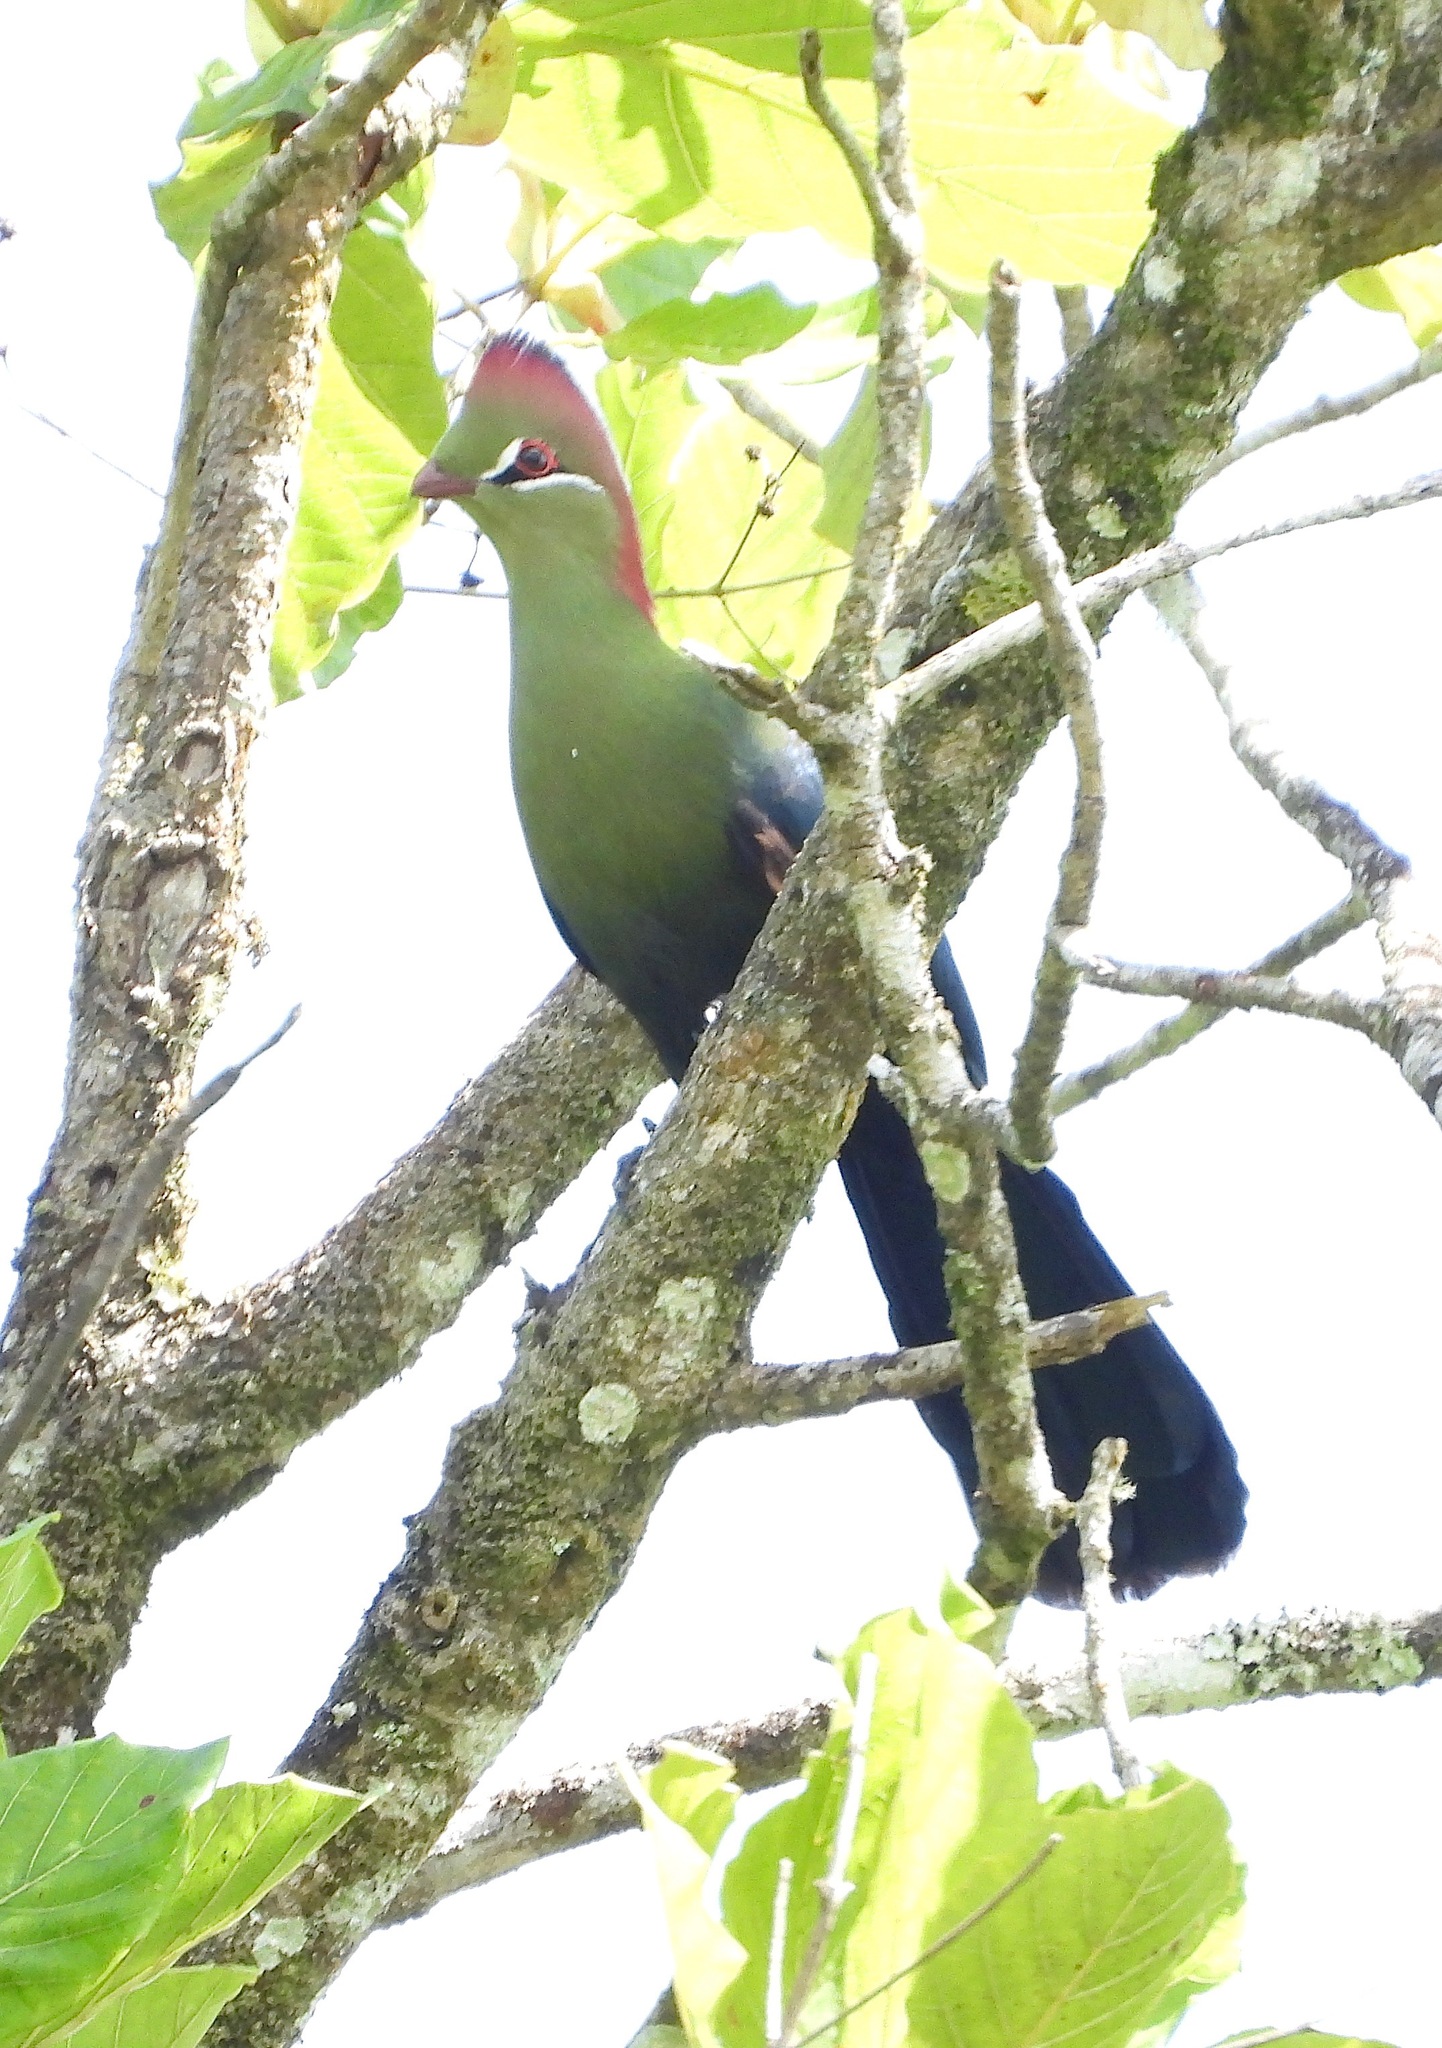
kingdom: Animalia
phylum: Chordata
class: Aves
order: Musophagiformes
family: Musophagidae
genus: Tauraco
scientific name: Tauraco fischeri
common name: Fischer's turaco
